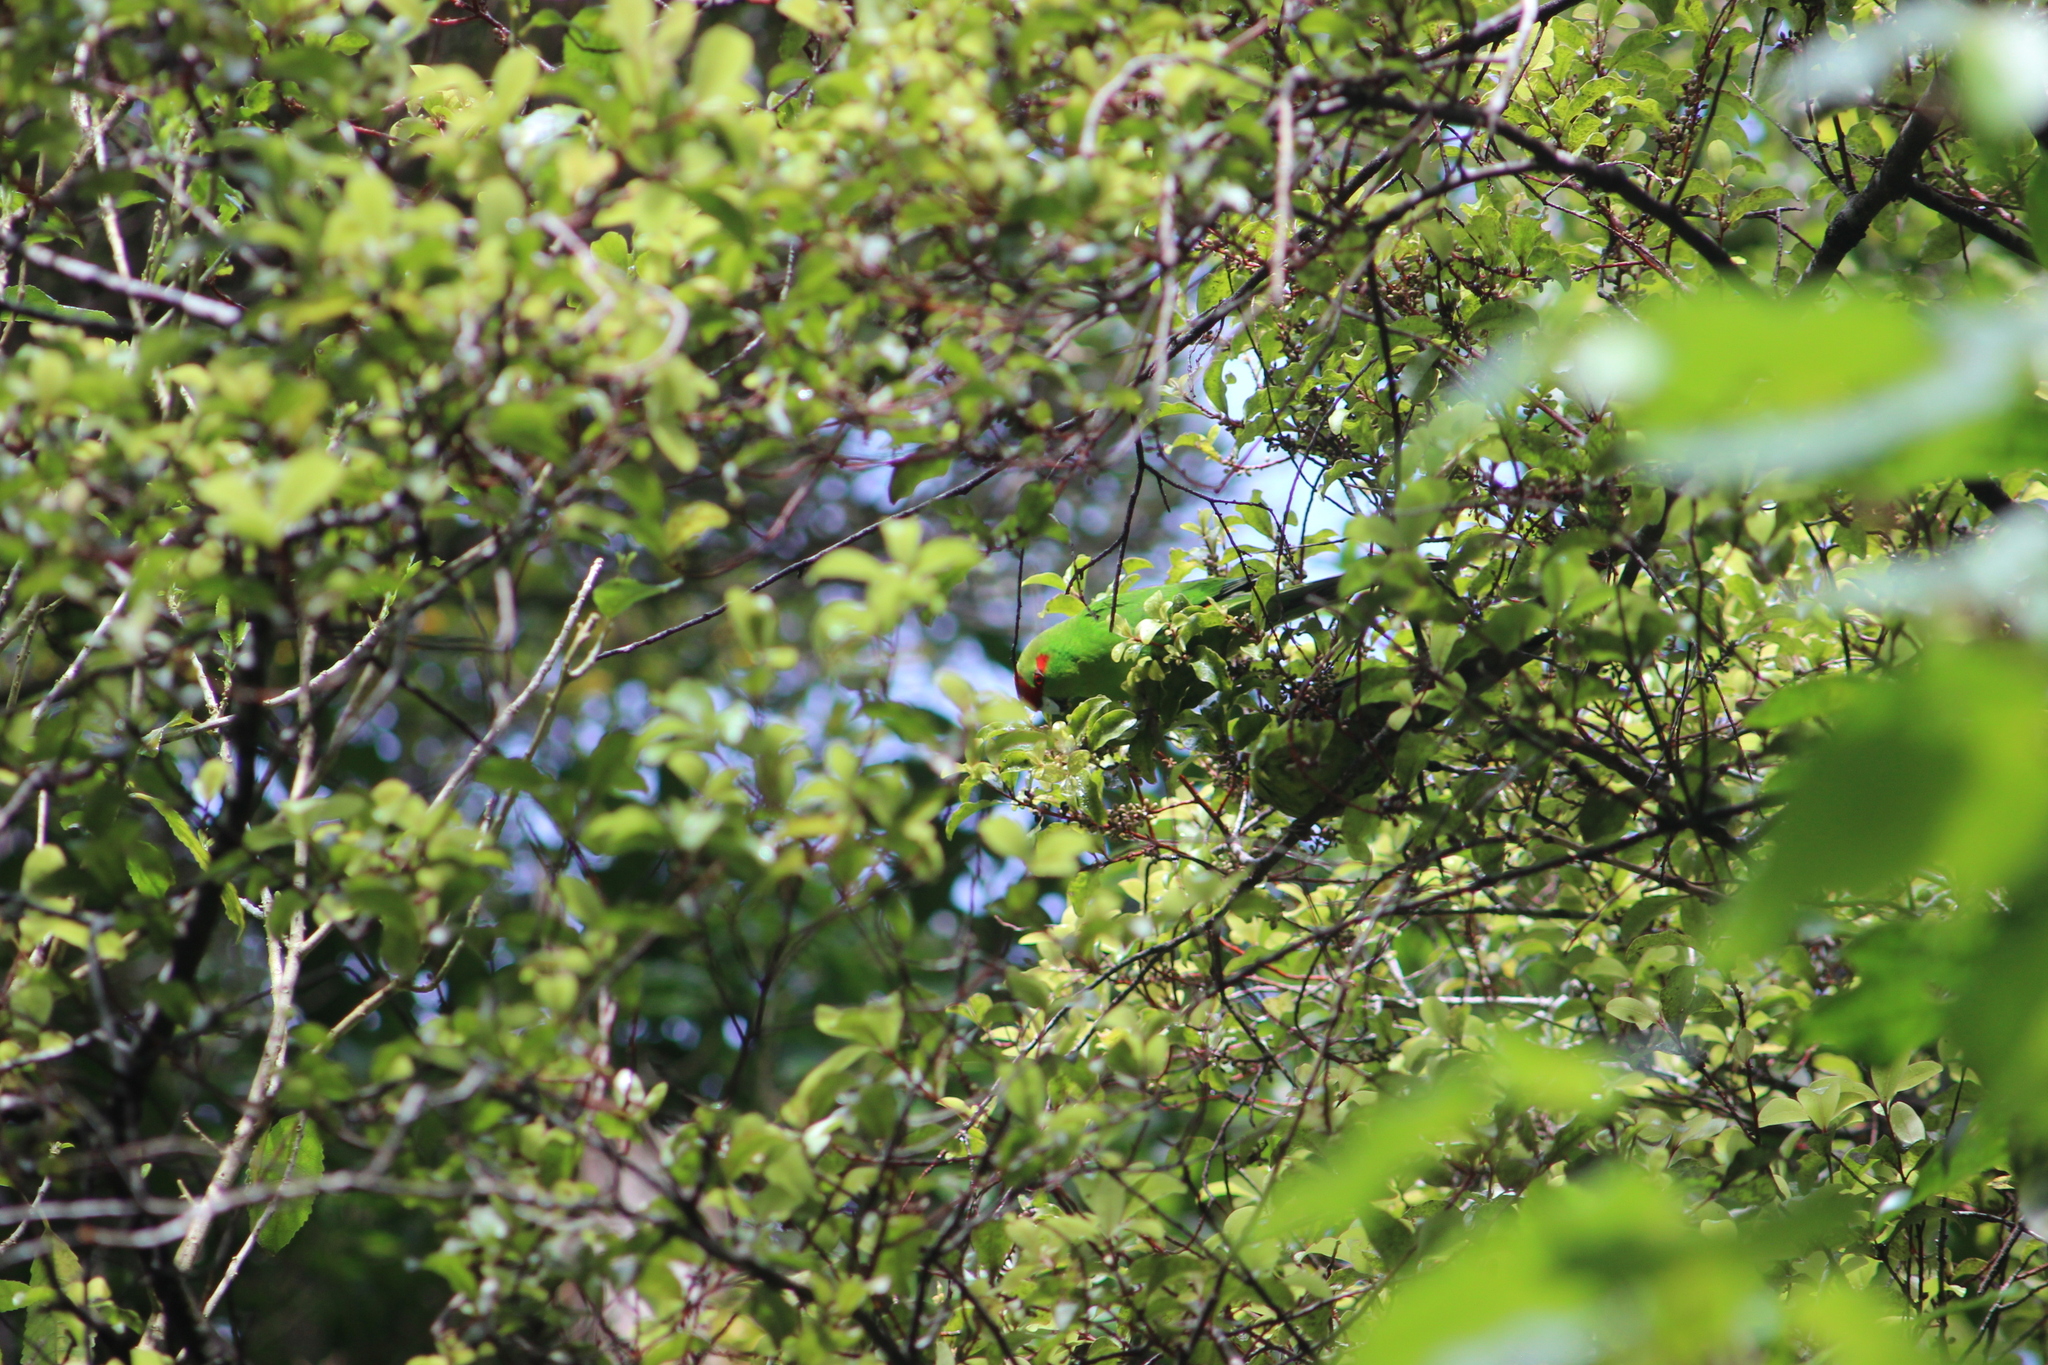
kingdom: Animalia
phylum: Chordata
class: Aves
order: Psittaciformes
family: Psittacidae
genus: Cyanoramphus
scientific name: Cyanoramphus novaezelandiae
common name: Red-fronted parakeet
